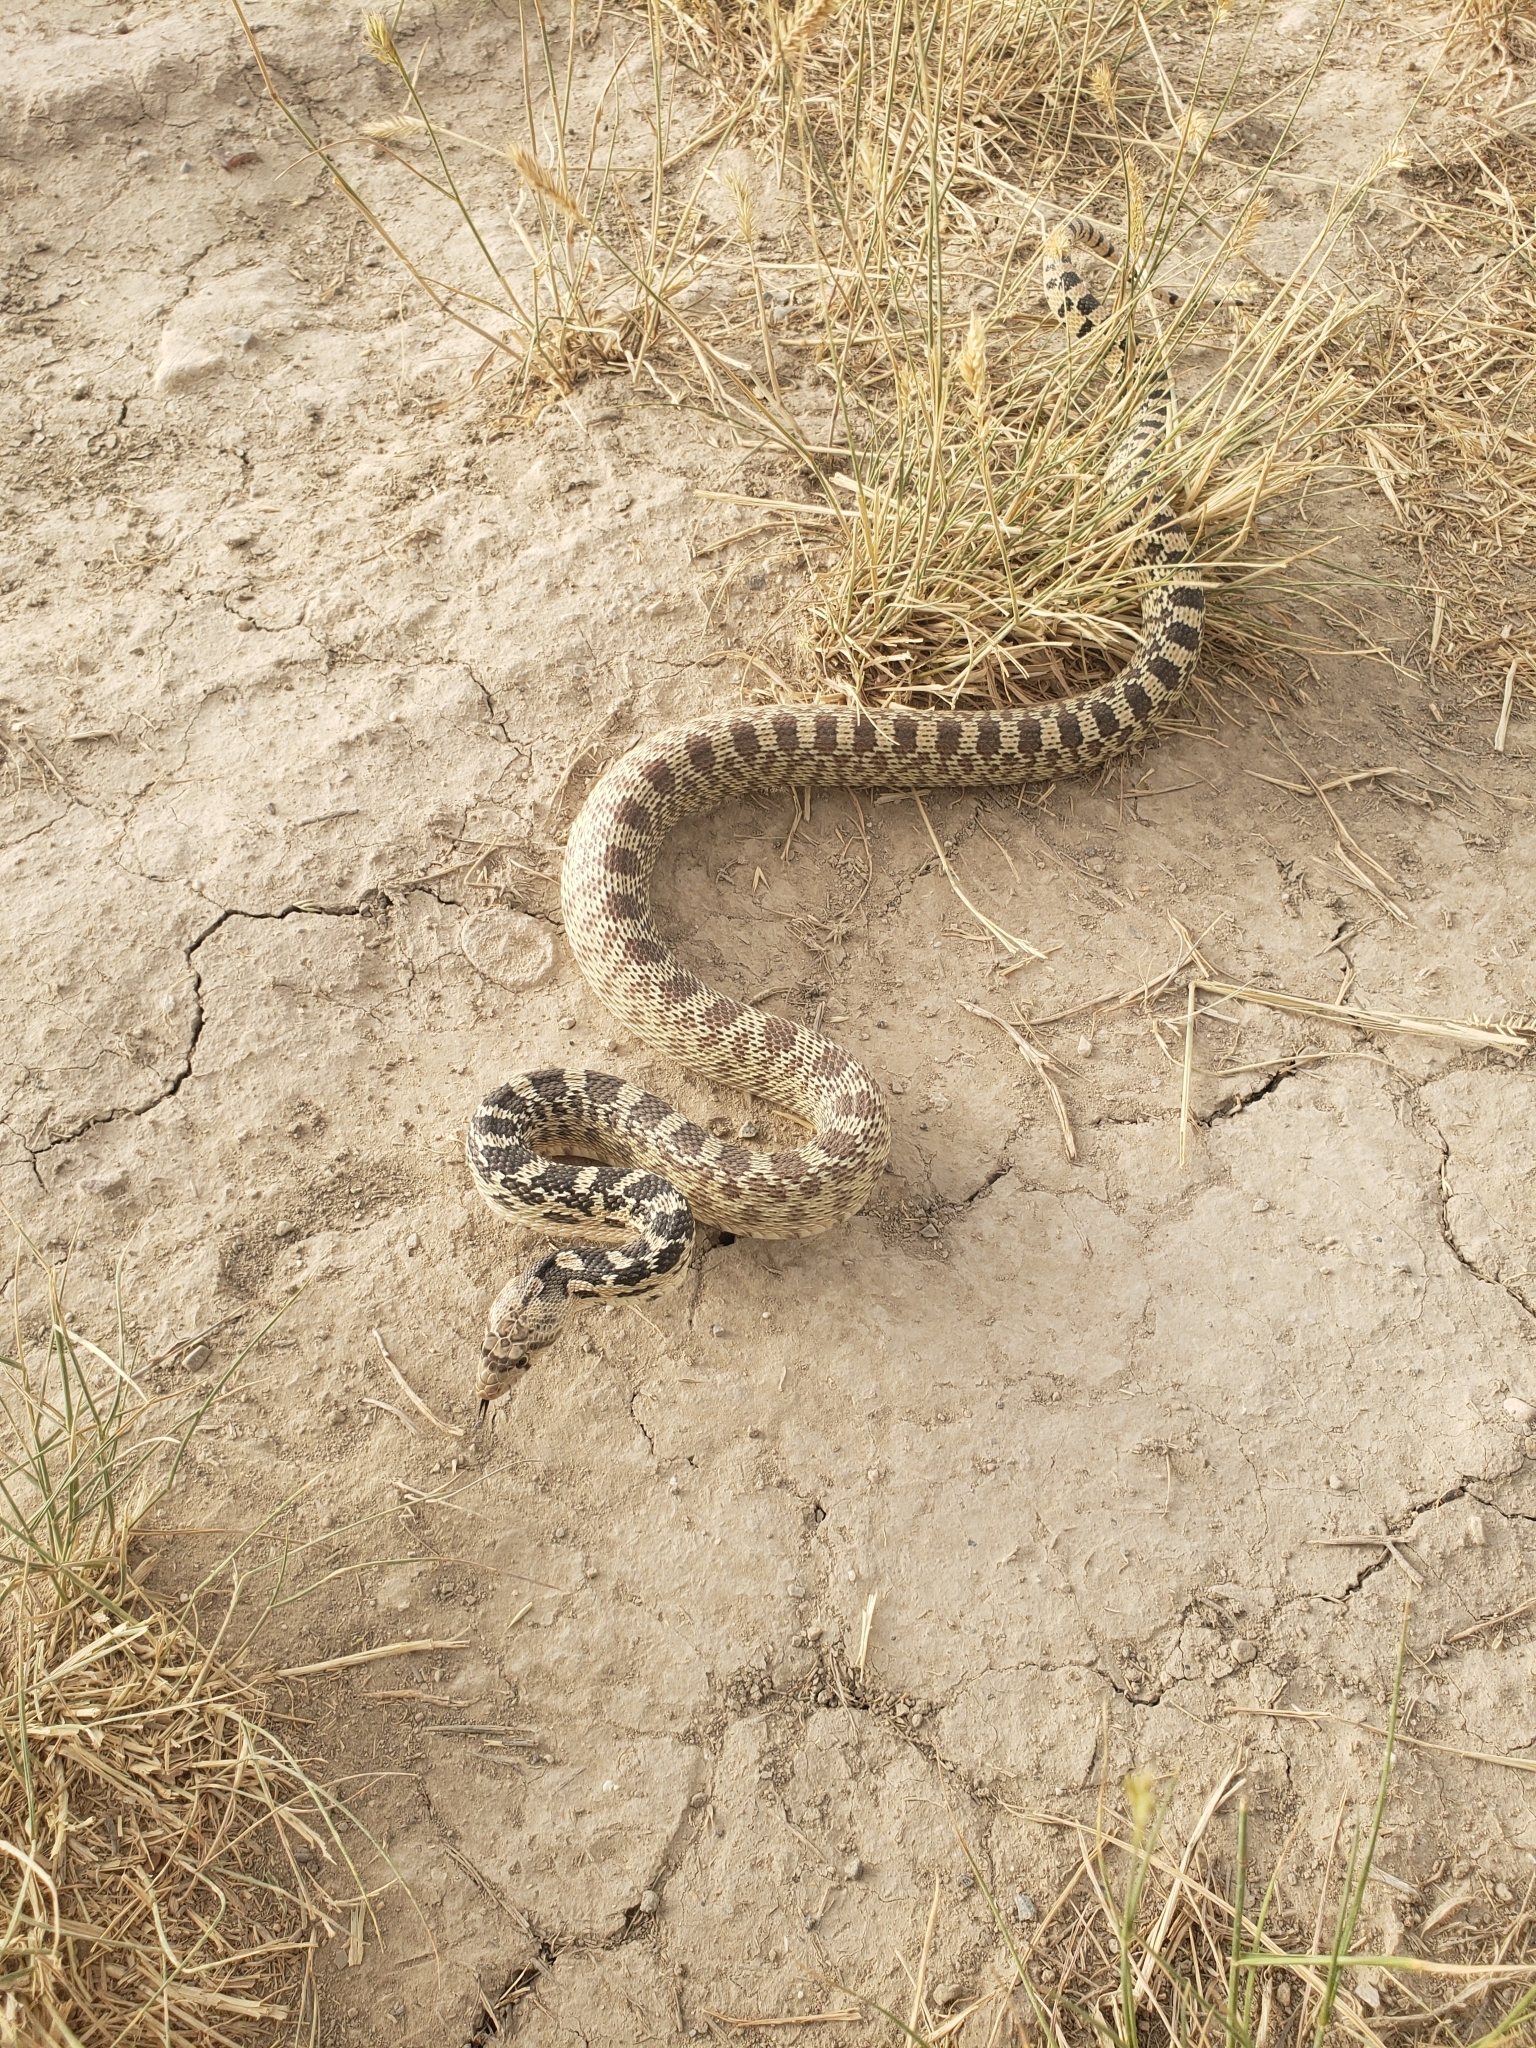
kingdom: Animalia
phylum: Chordata
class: Squamata
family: Colubridae
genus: Pituophis
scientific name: Pituophis catenifer
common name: Gopher snake
